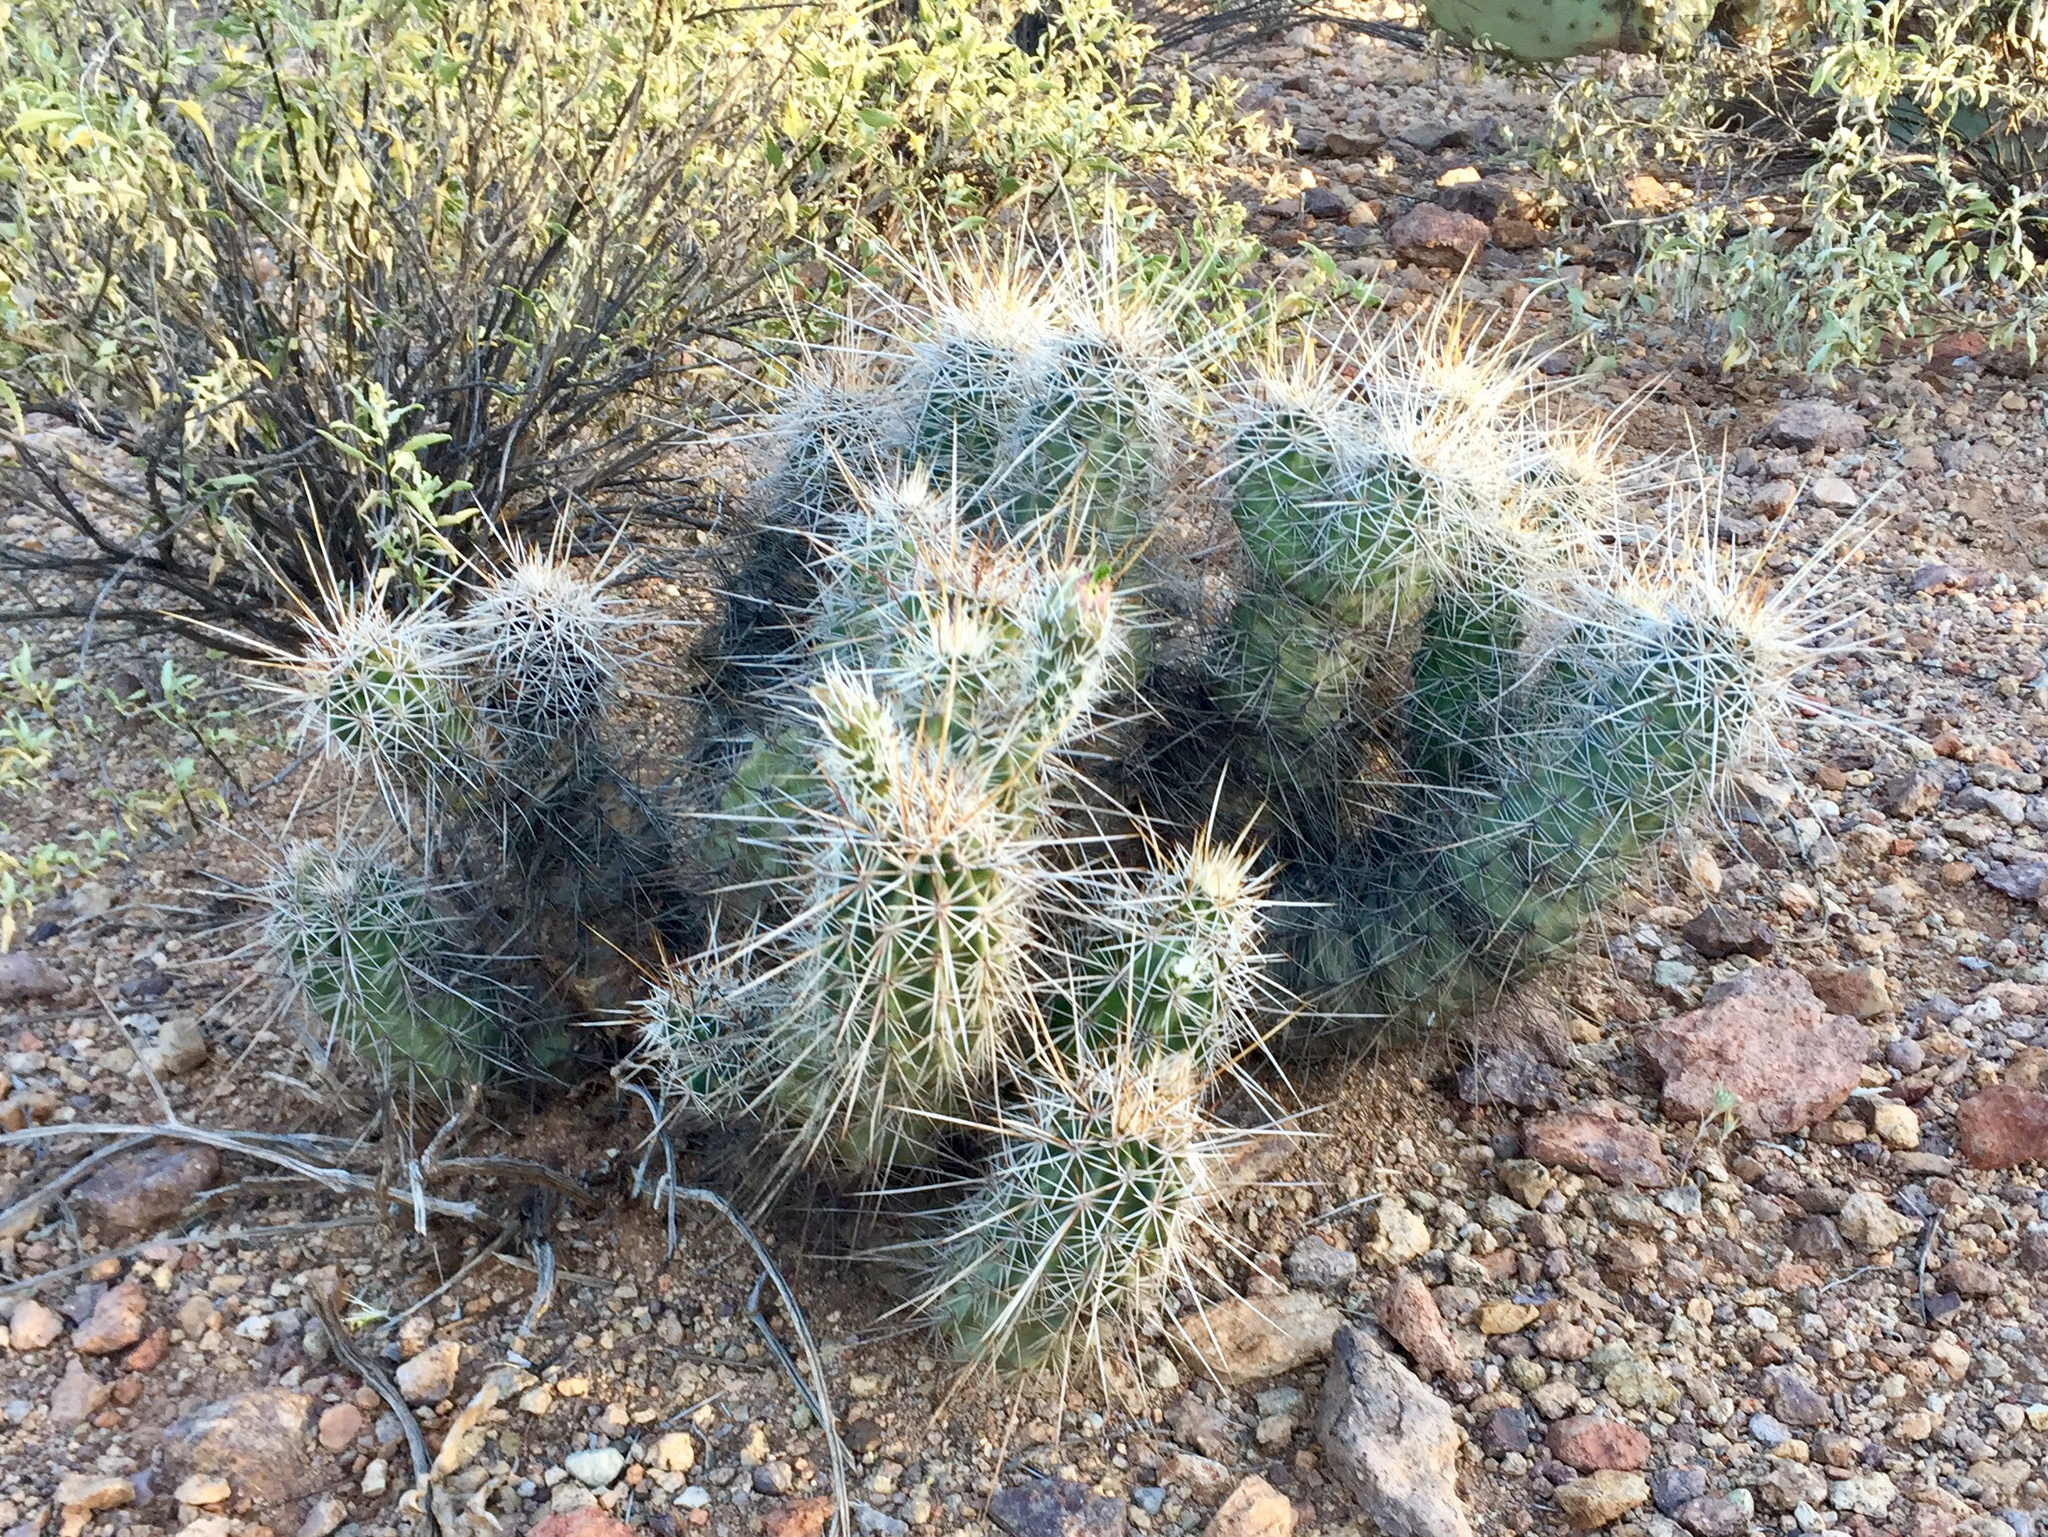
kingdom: Plantae
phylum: Tracheophyta
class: Magnoliopsida
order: Caryophyllales
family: Cactaceae
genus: Echinocereus
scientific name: Echinocereus fasciculatus
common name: Bundle hedgehog
